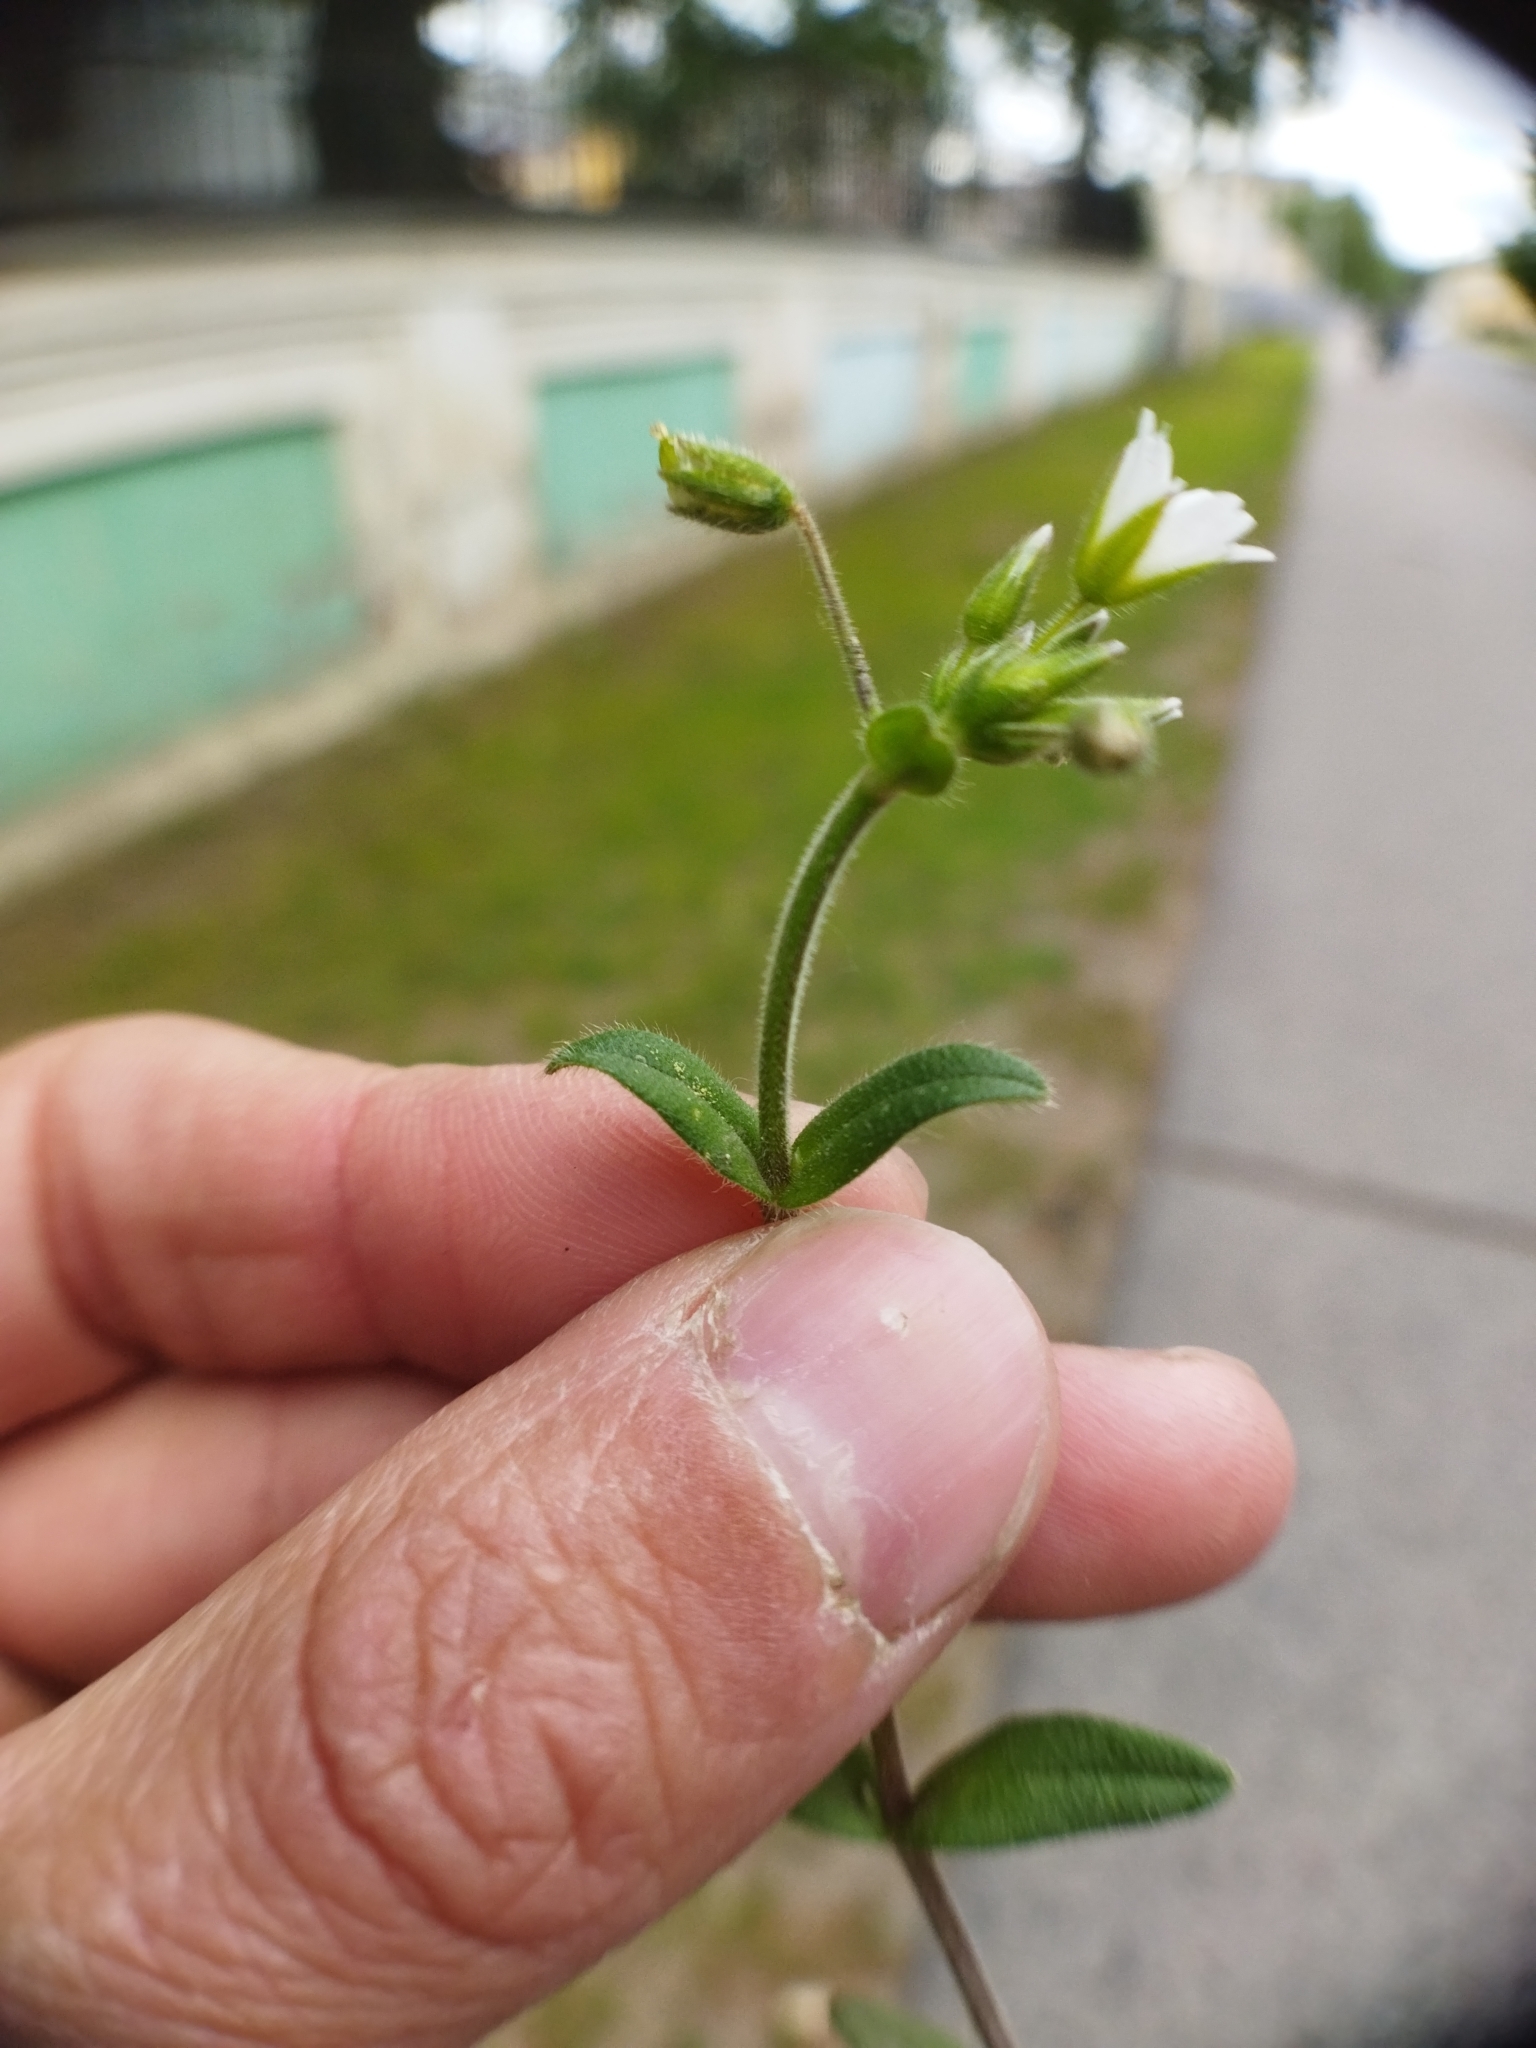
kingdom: Plantae
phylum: Tracheophyta
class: Magnoliopsida
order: Caryophyllales
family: Caryophyllaceae
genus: Cerastium
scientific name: Cerastium holosteoides
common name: Big chickweed
